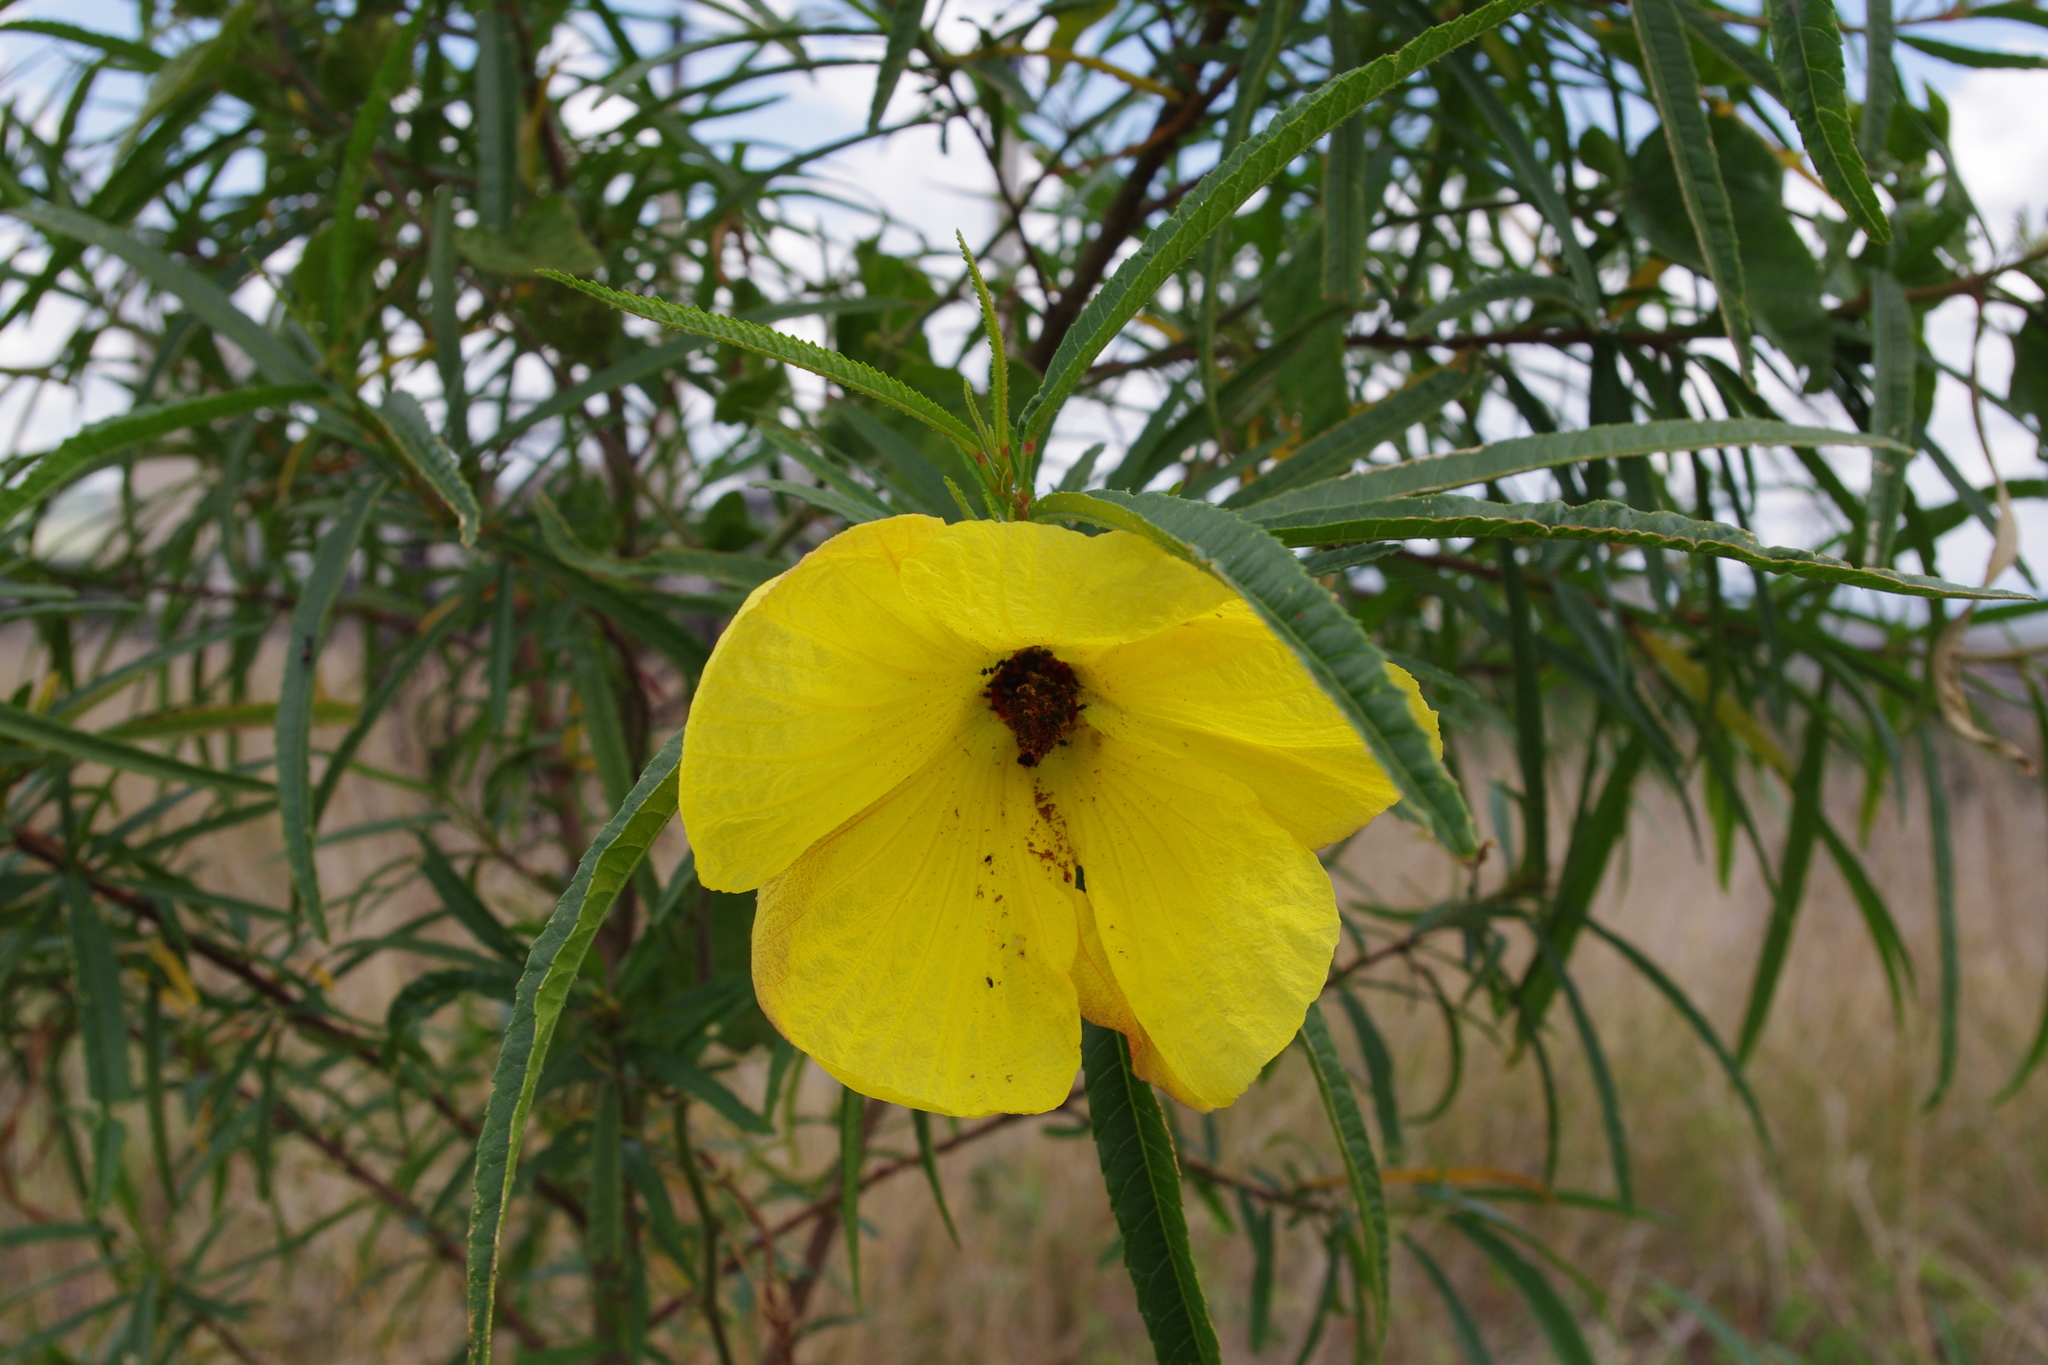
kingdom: Plantae
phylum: Tracheophyta
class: Magnoliopsida
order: Malvales
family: Malvaceae
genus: Hibiscus
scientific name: Hibiscus heterophyllus
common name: Queensland-sorrel
